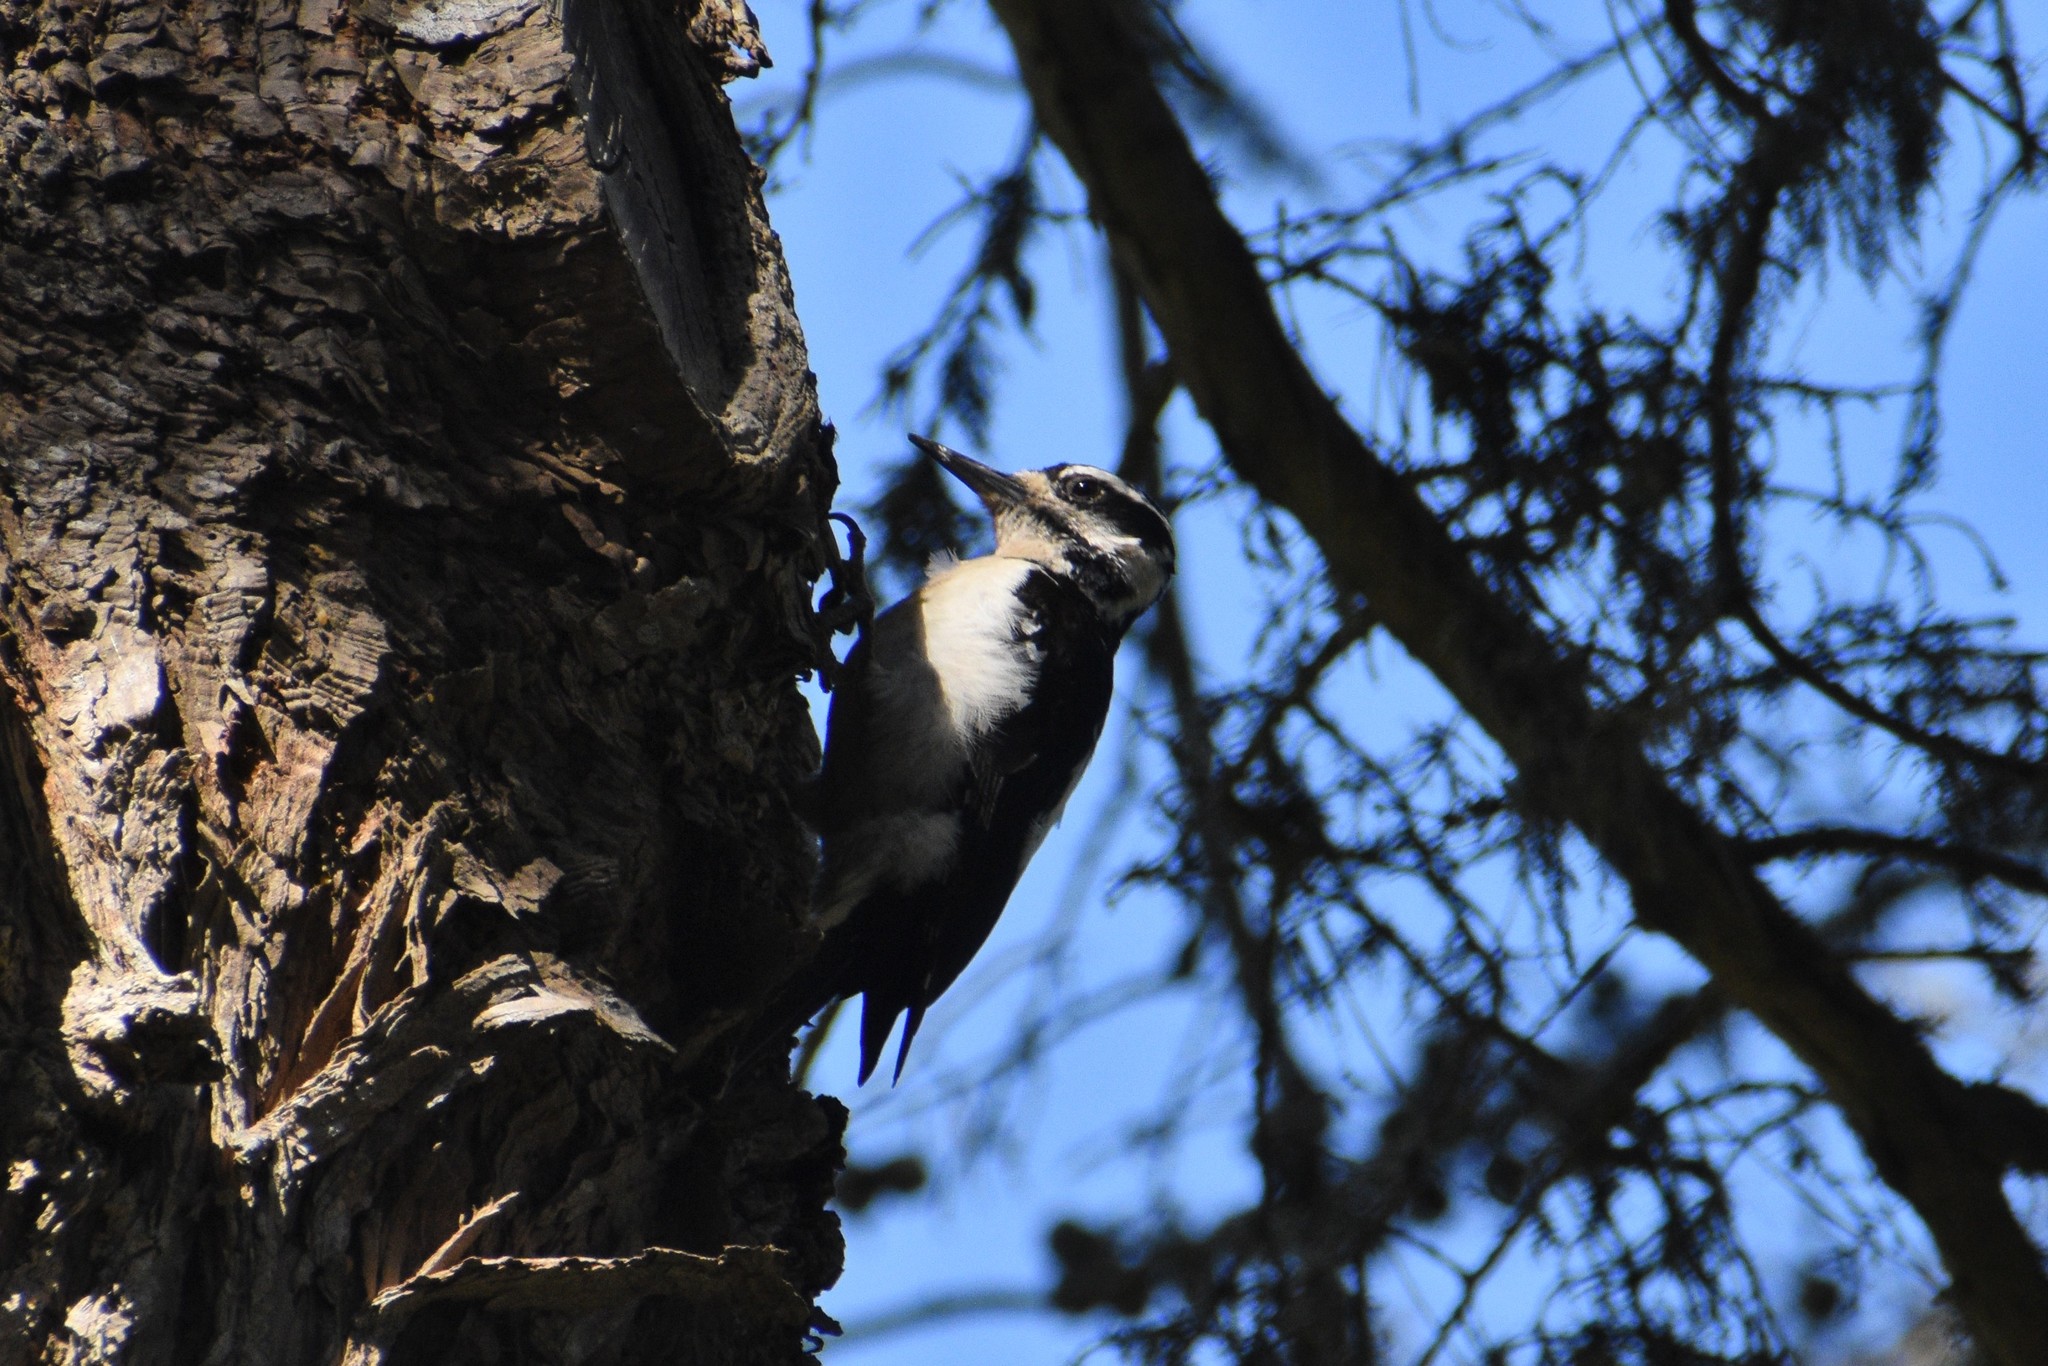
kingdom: Animalia
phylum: Chordata
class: Aves
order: Piciformes
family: Picidae
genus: Leuconotopicus
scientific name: Leuconotopicus villosus
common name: Hairy woodpecker
